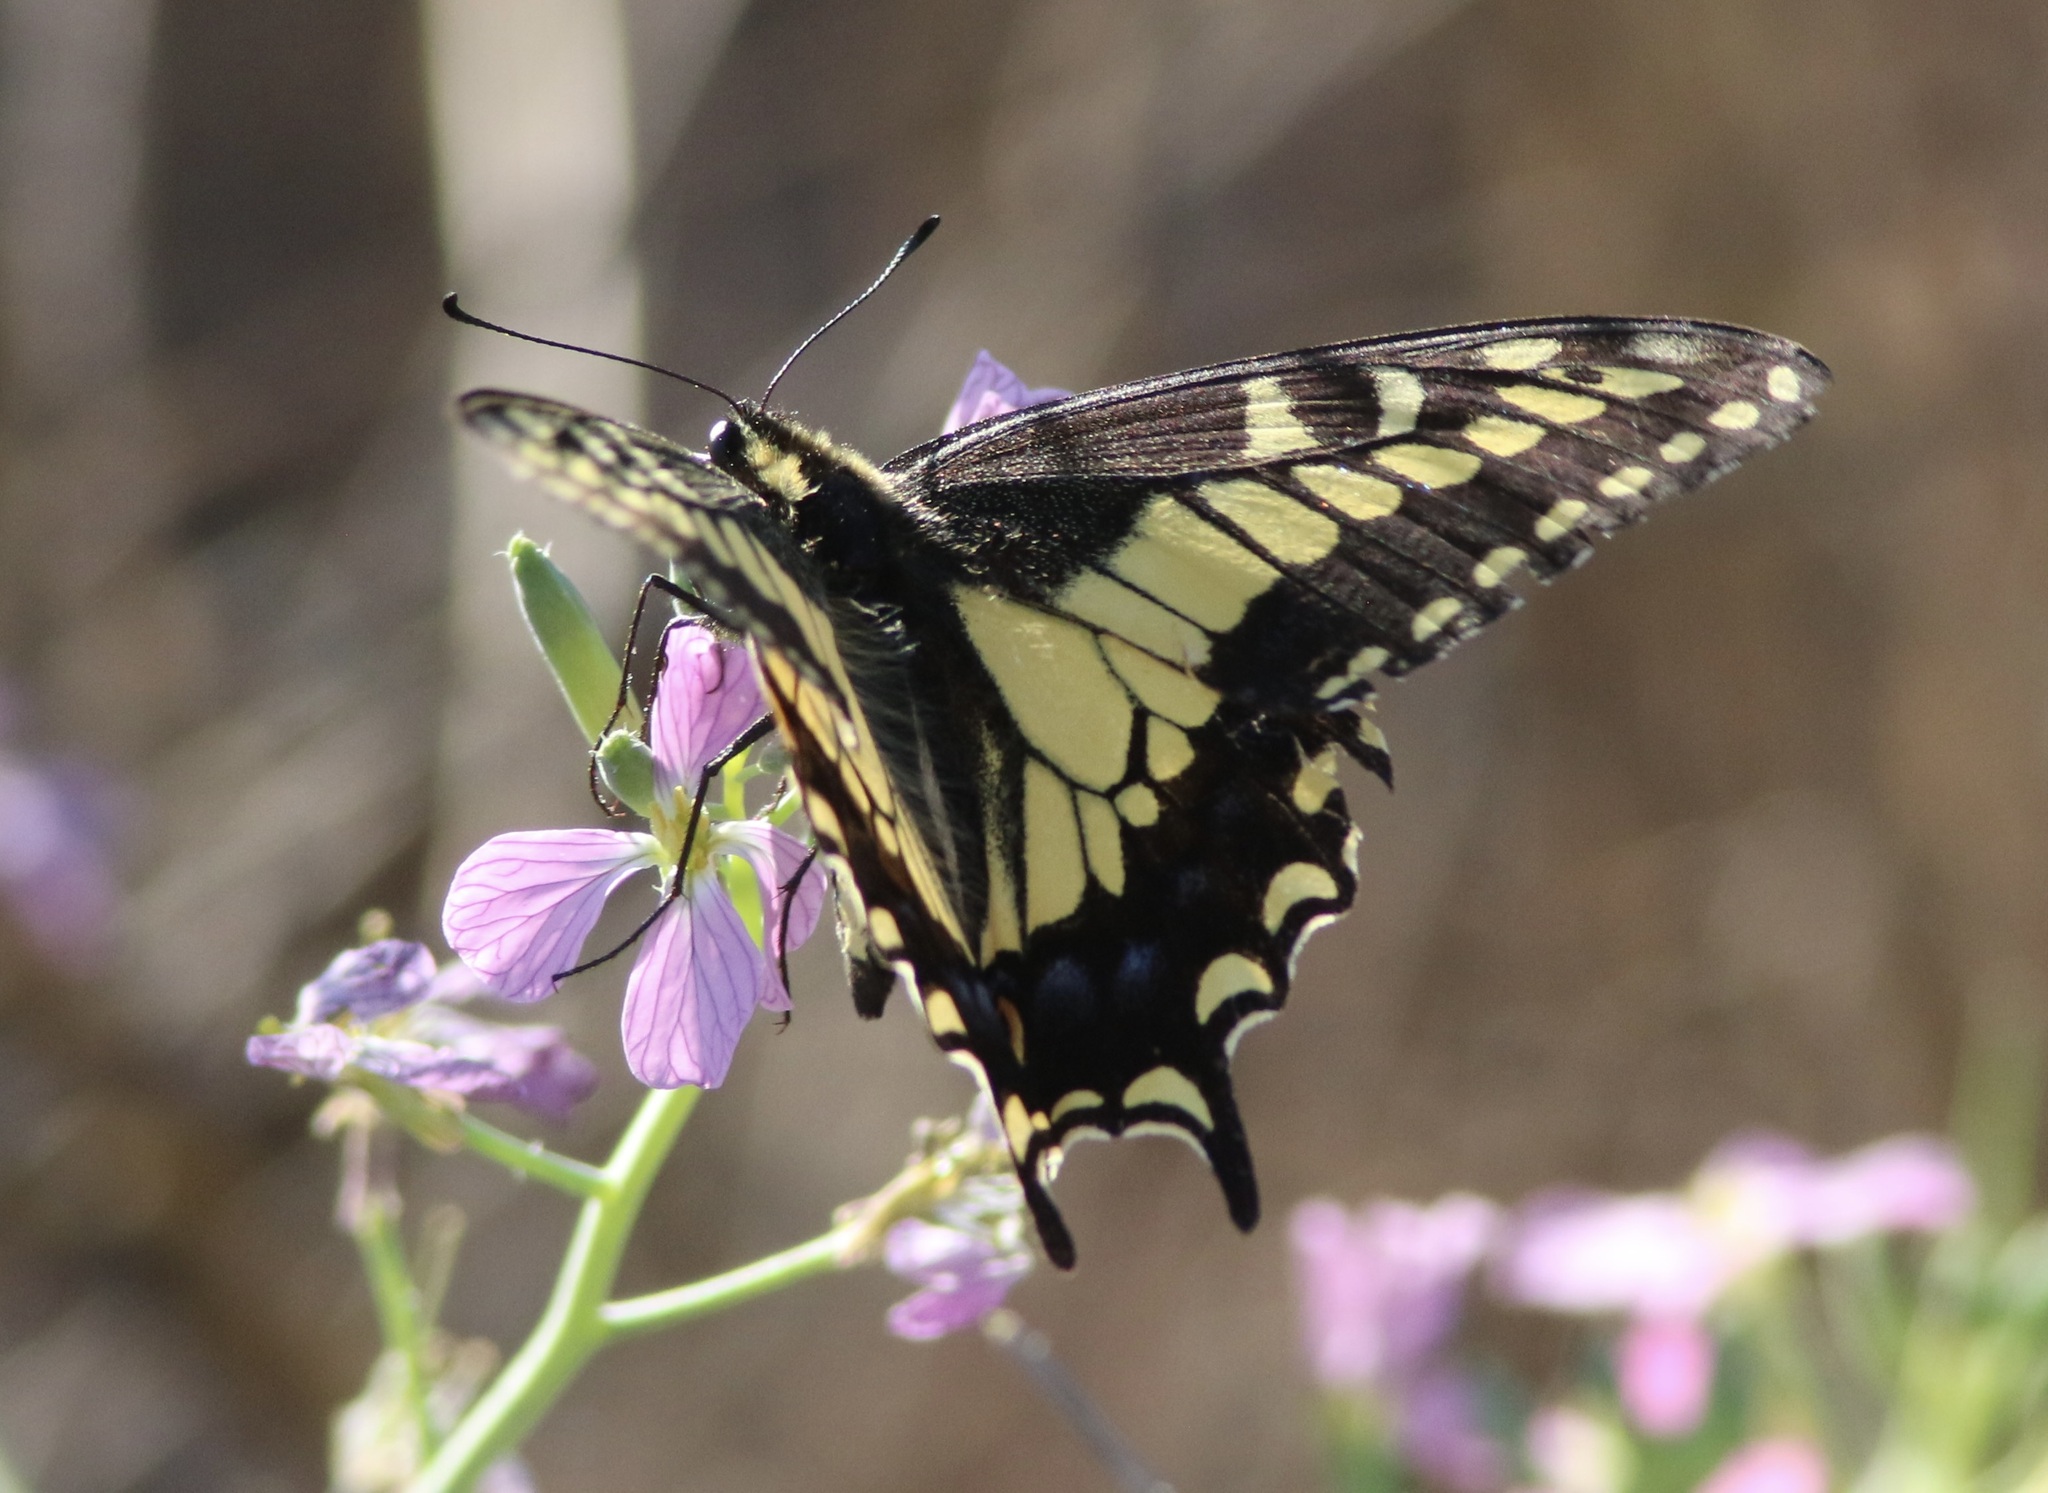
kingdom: Animalia
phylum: Arthropoda
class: Insecta
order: Lepidoptera
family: Papilionidae
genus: Papilio
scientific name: Papilio zelicaon
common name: Anise swallowtail
